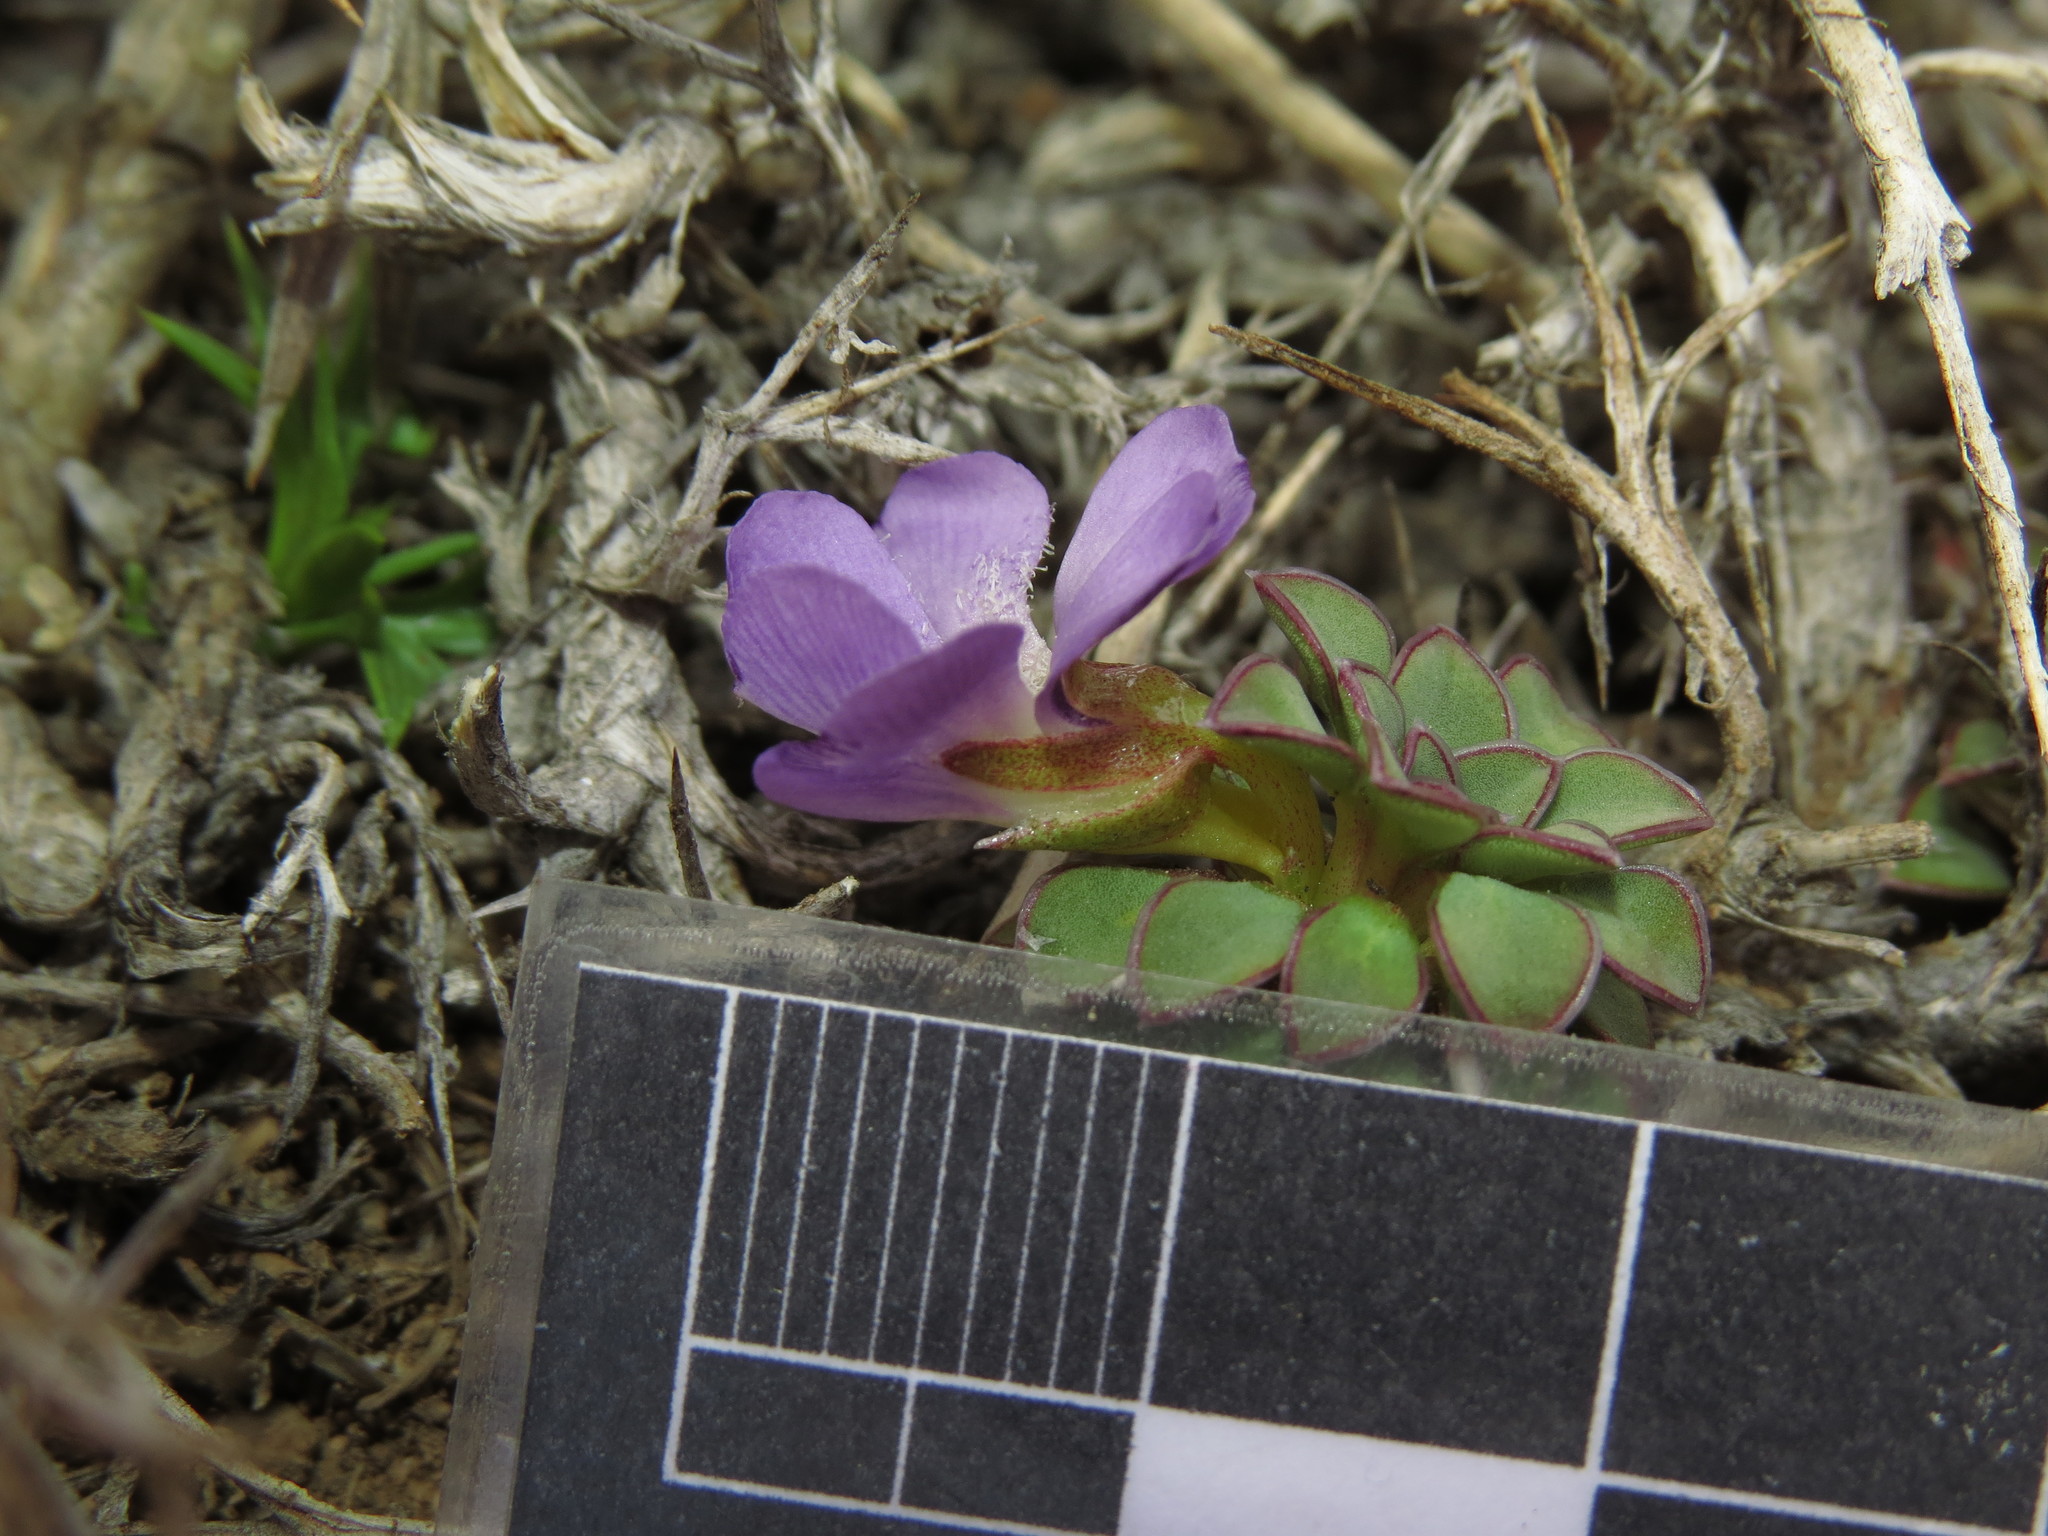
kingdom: Plantae
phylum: Tracheophyta
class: Magnoliopsida
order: Malpighiales
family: Violaceae
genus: Viola
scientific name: Viola cotyledon
